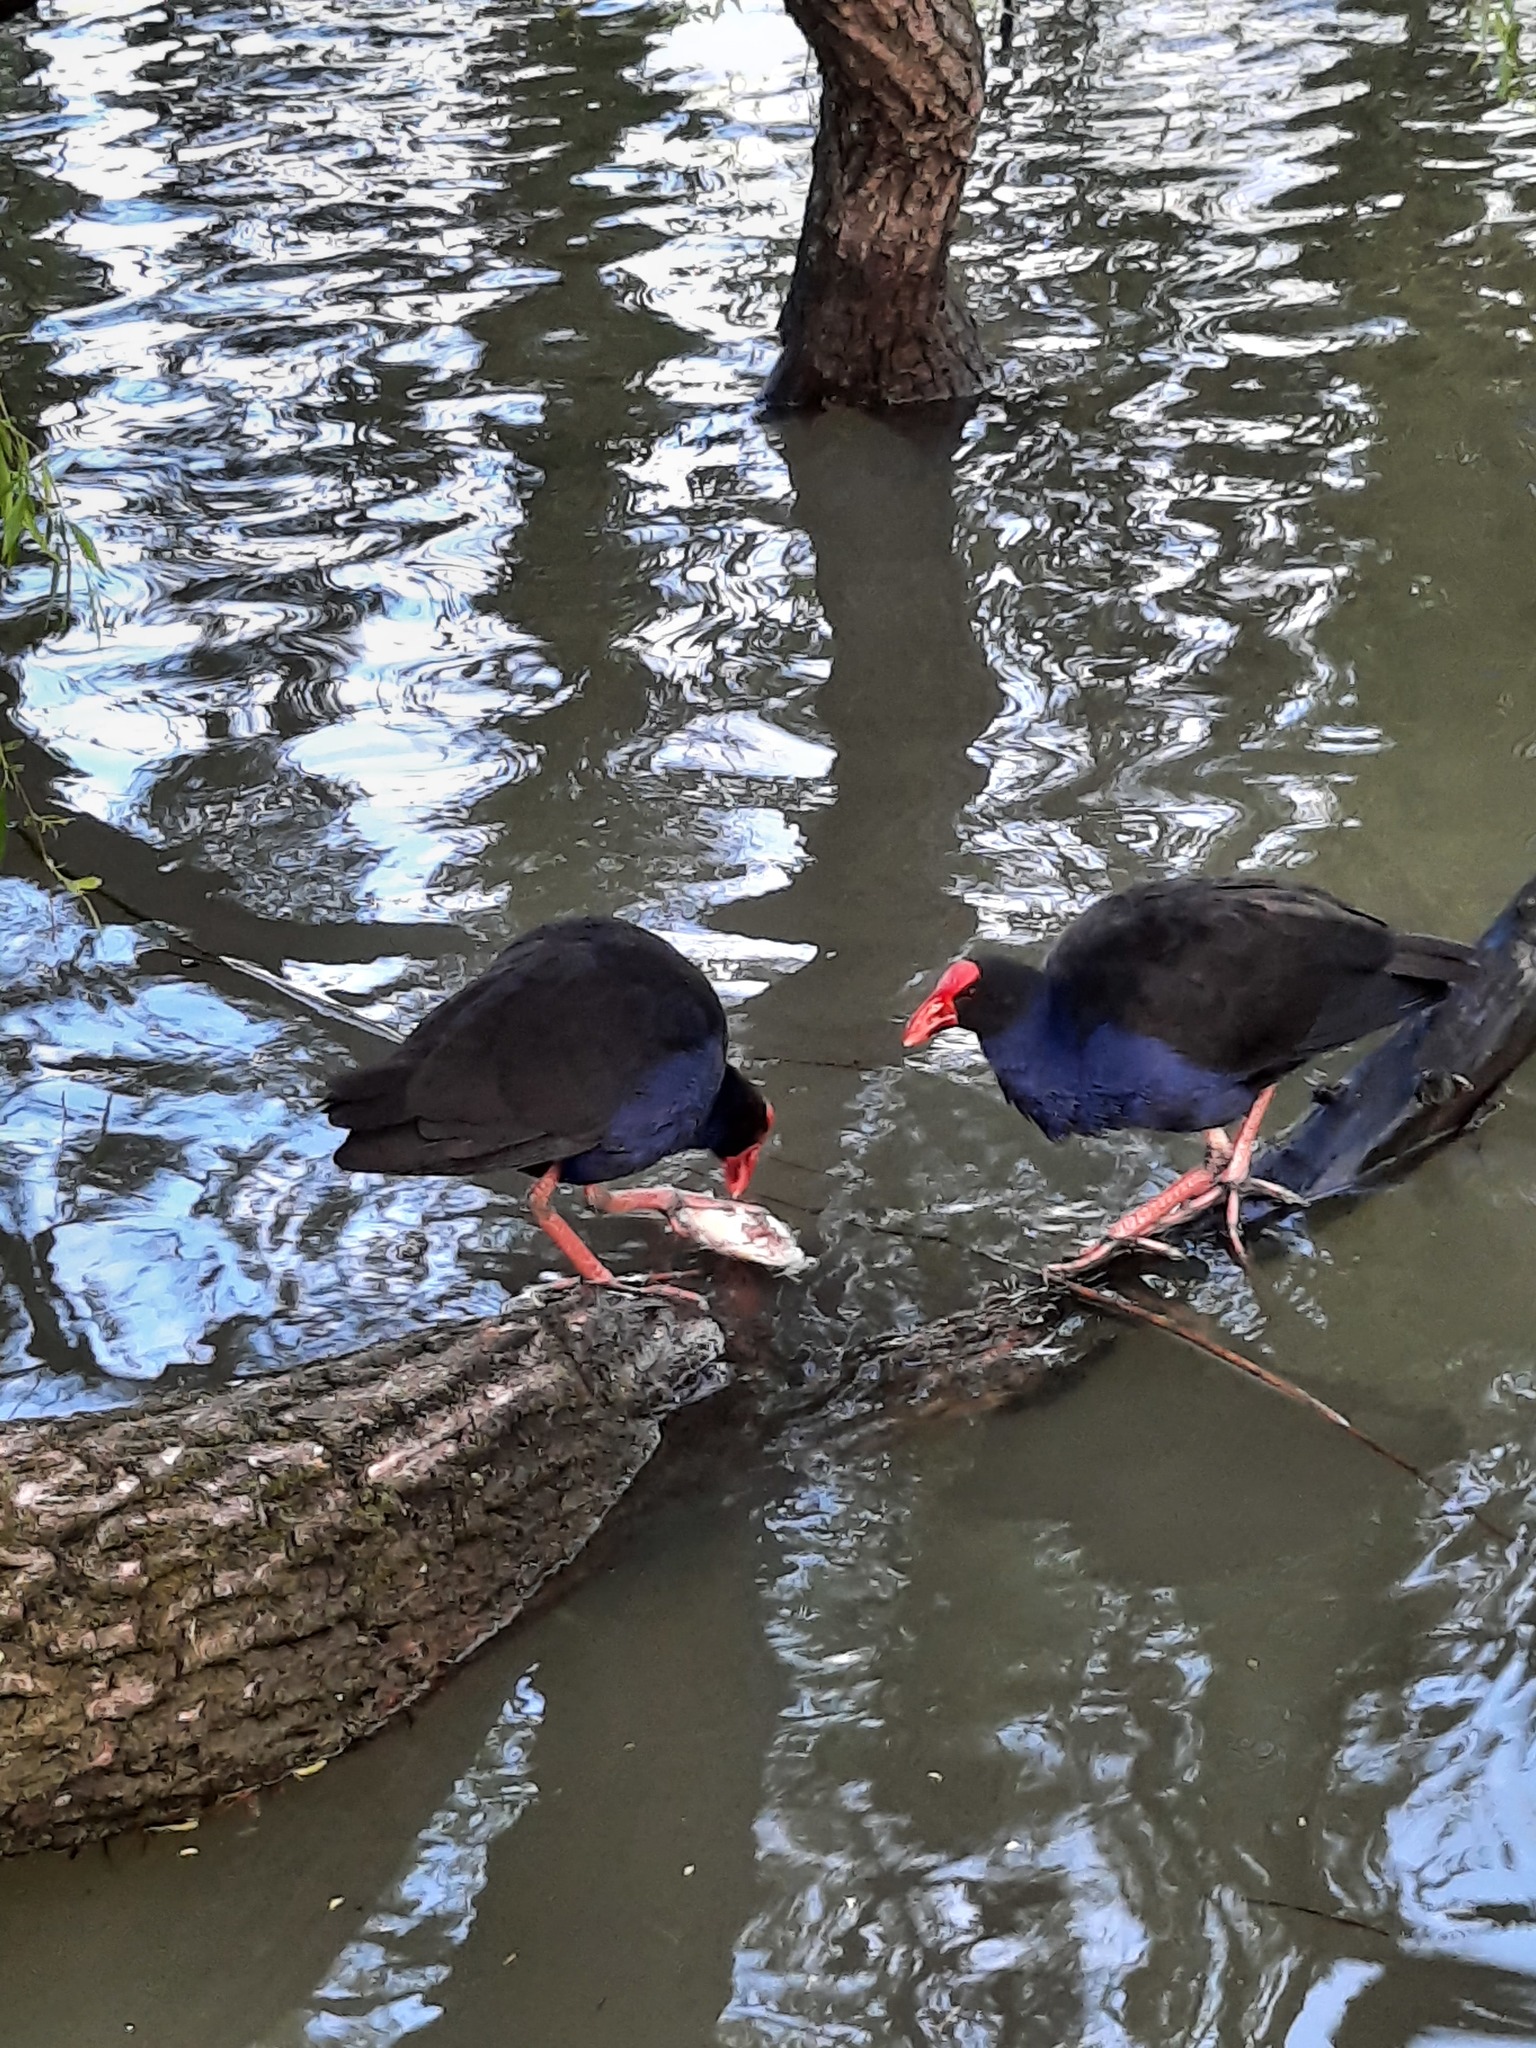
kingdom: Animalia
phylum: Chordata
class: Aves
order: Gruiformes
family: Rallidae
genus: Porphyrio
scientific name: Porphyrio melanotus
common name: Australasian swamphen
